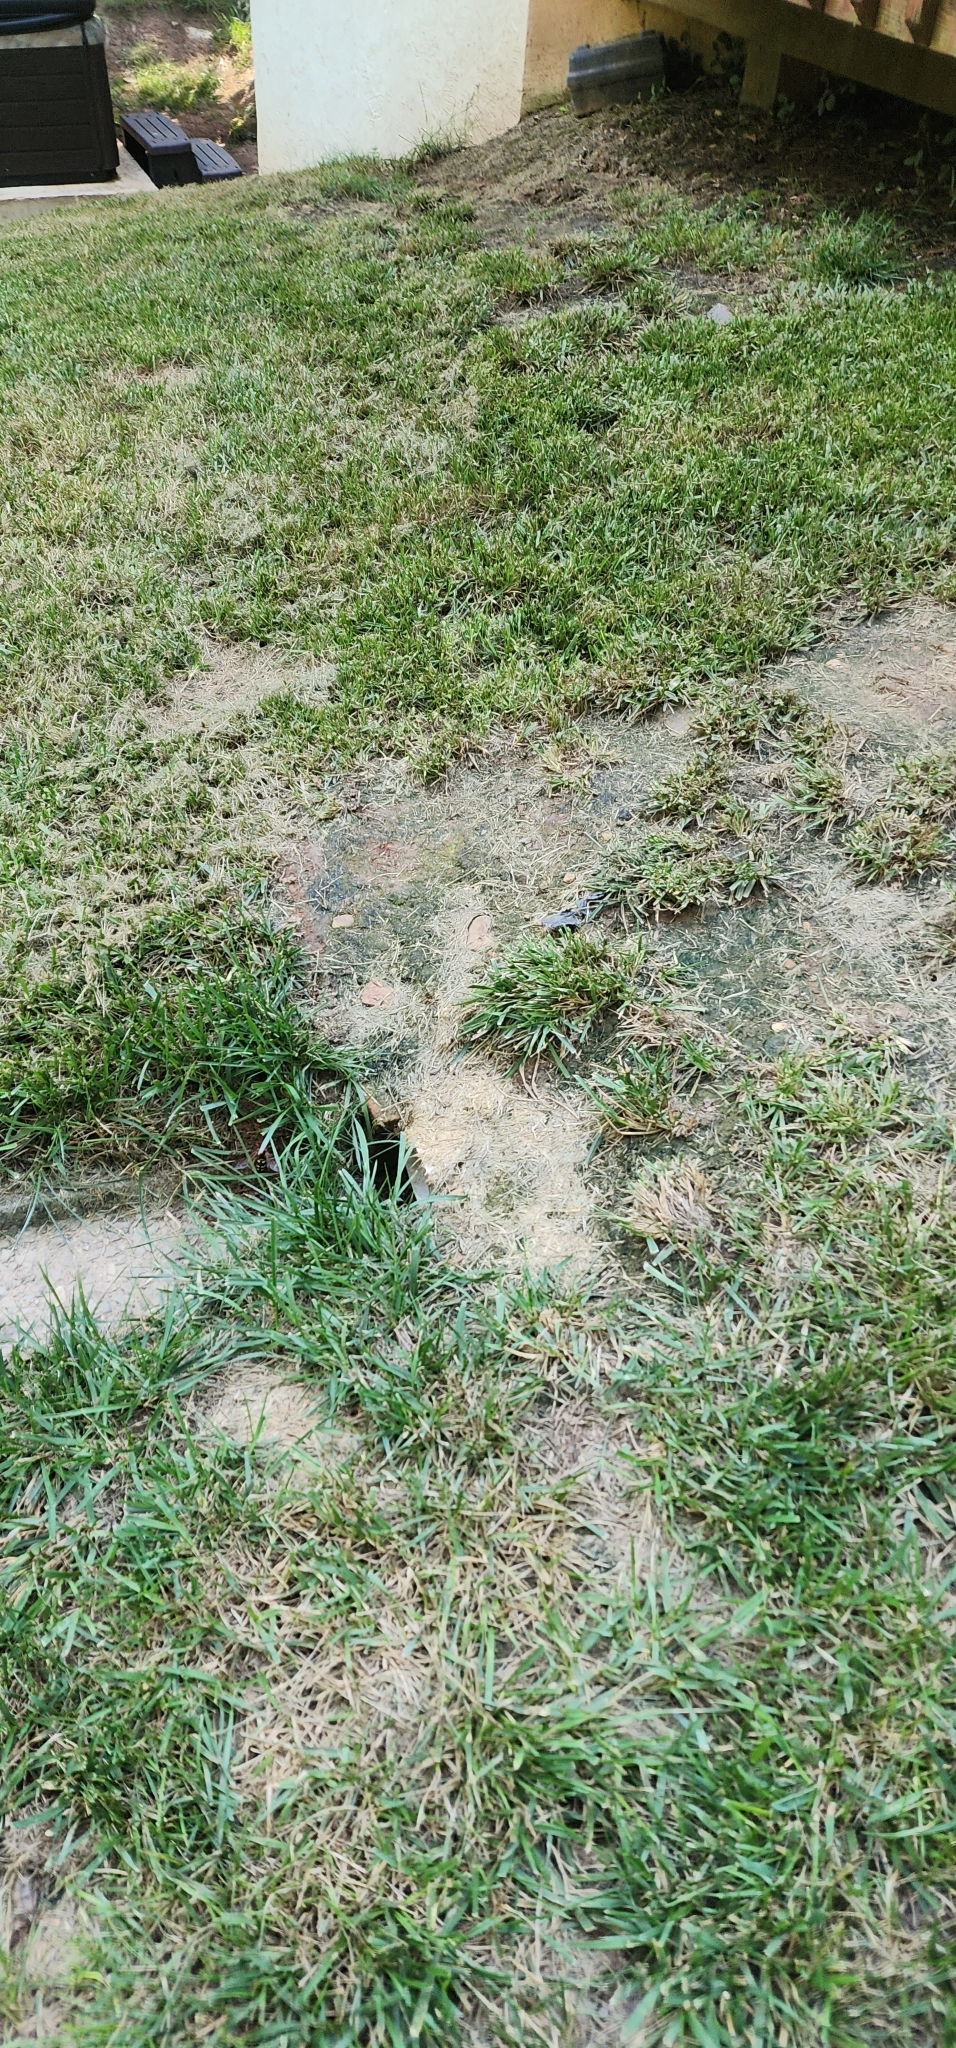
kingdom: Animalia
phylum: Arthropoda
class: Insecta
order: Hymenoptera
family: Crabronidae
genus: Sphecius
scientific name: Sphecius speciosus
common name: Cicada killer
